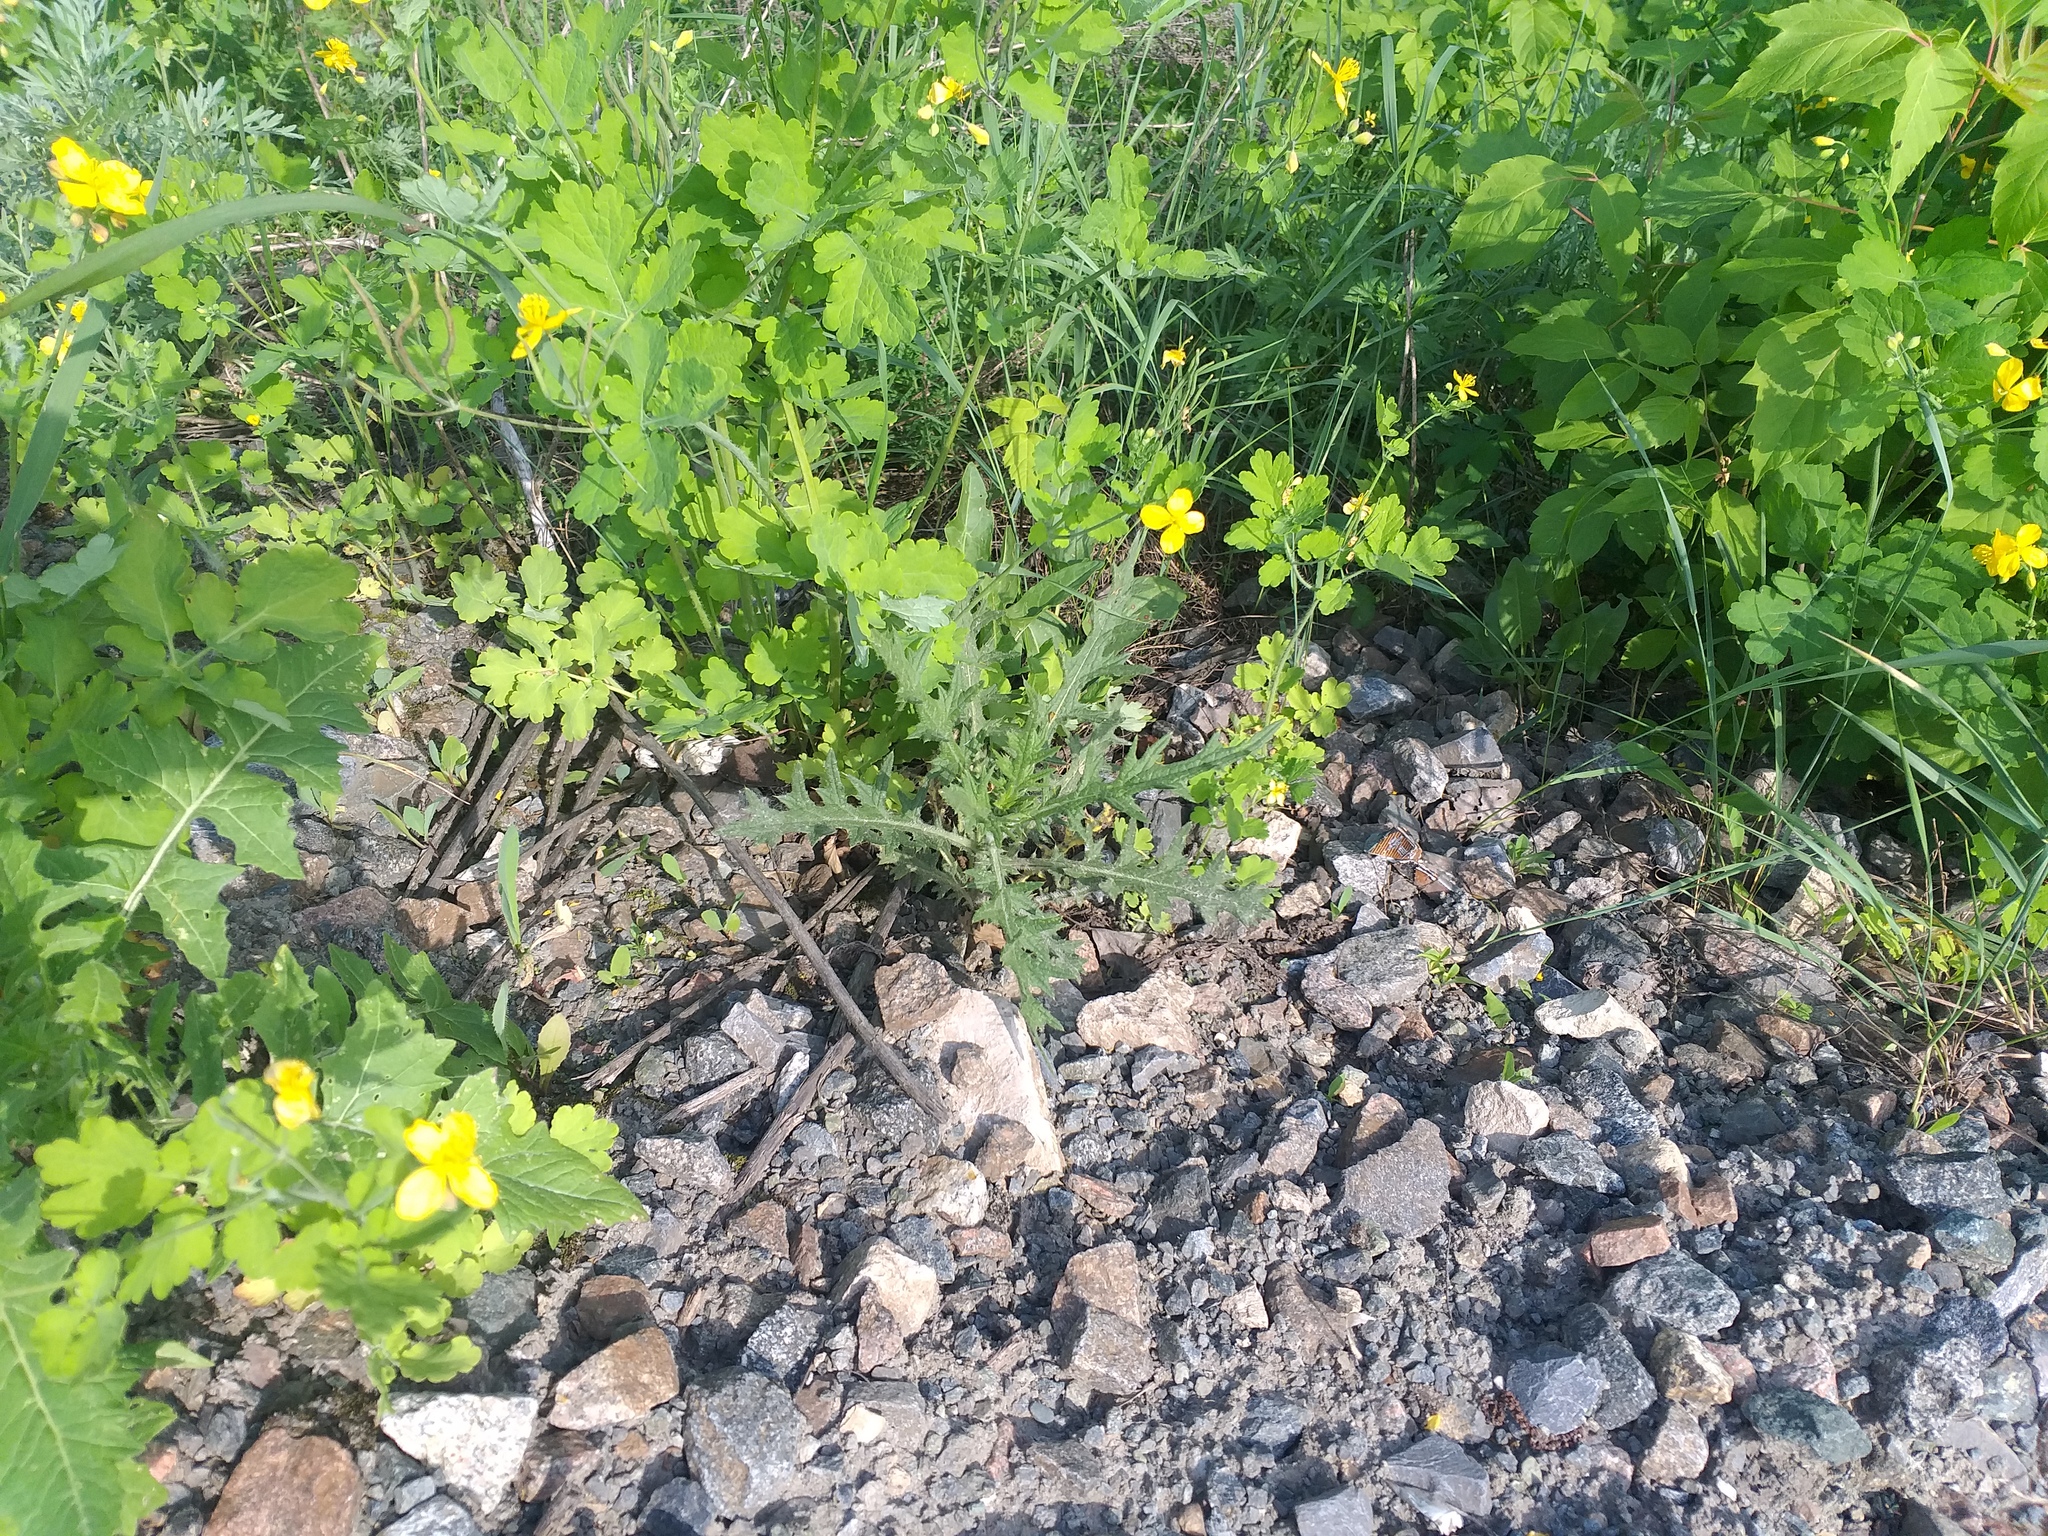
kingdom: Plantae
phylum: Tracheophyta
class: Magnoliopsida
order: Asterales
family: Asteraceae
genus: Cirsium
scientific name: Cirsium vulgare
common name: Bull thistle
